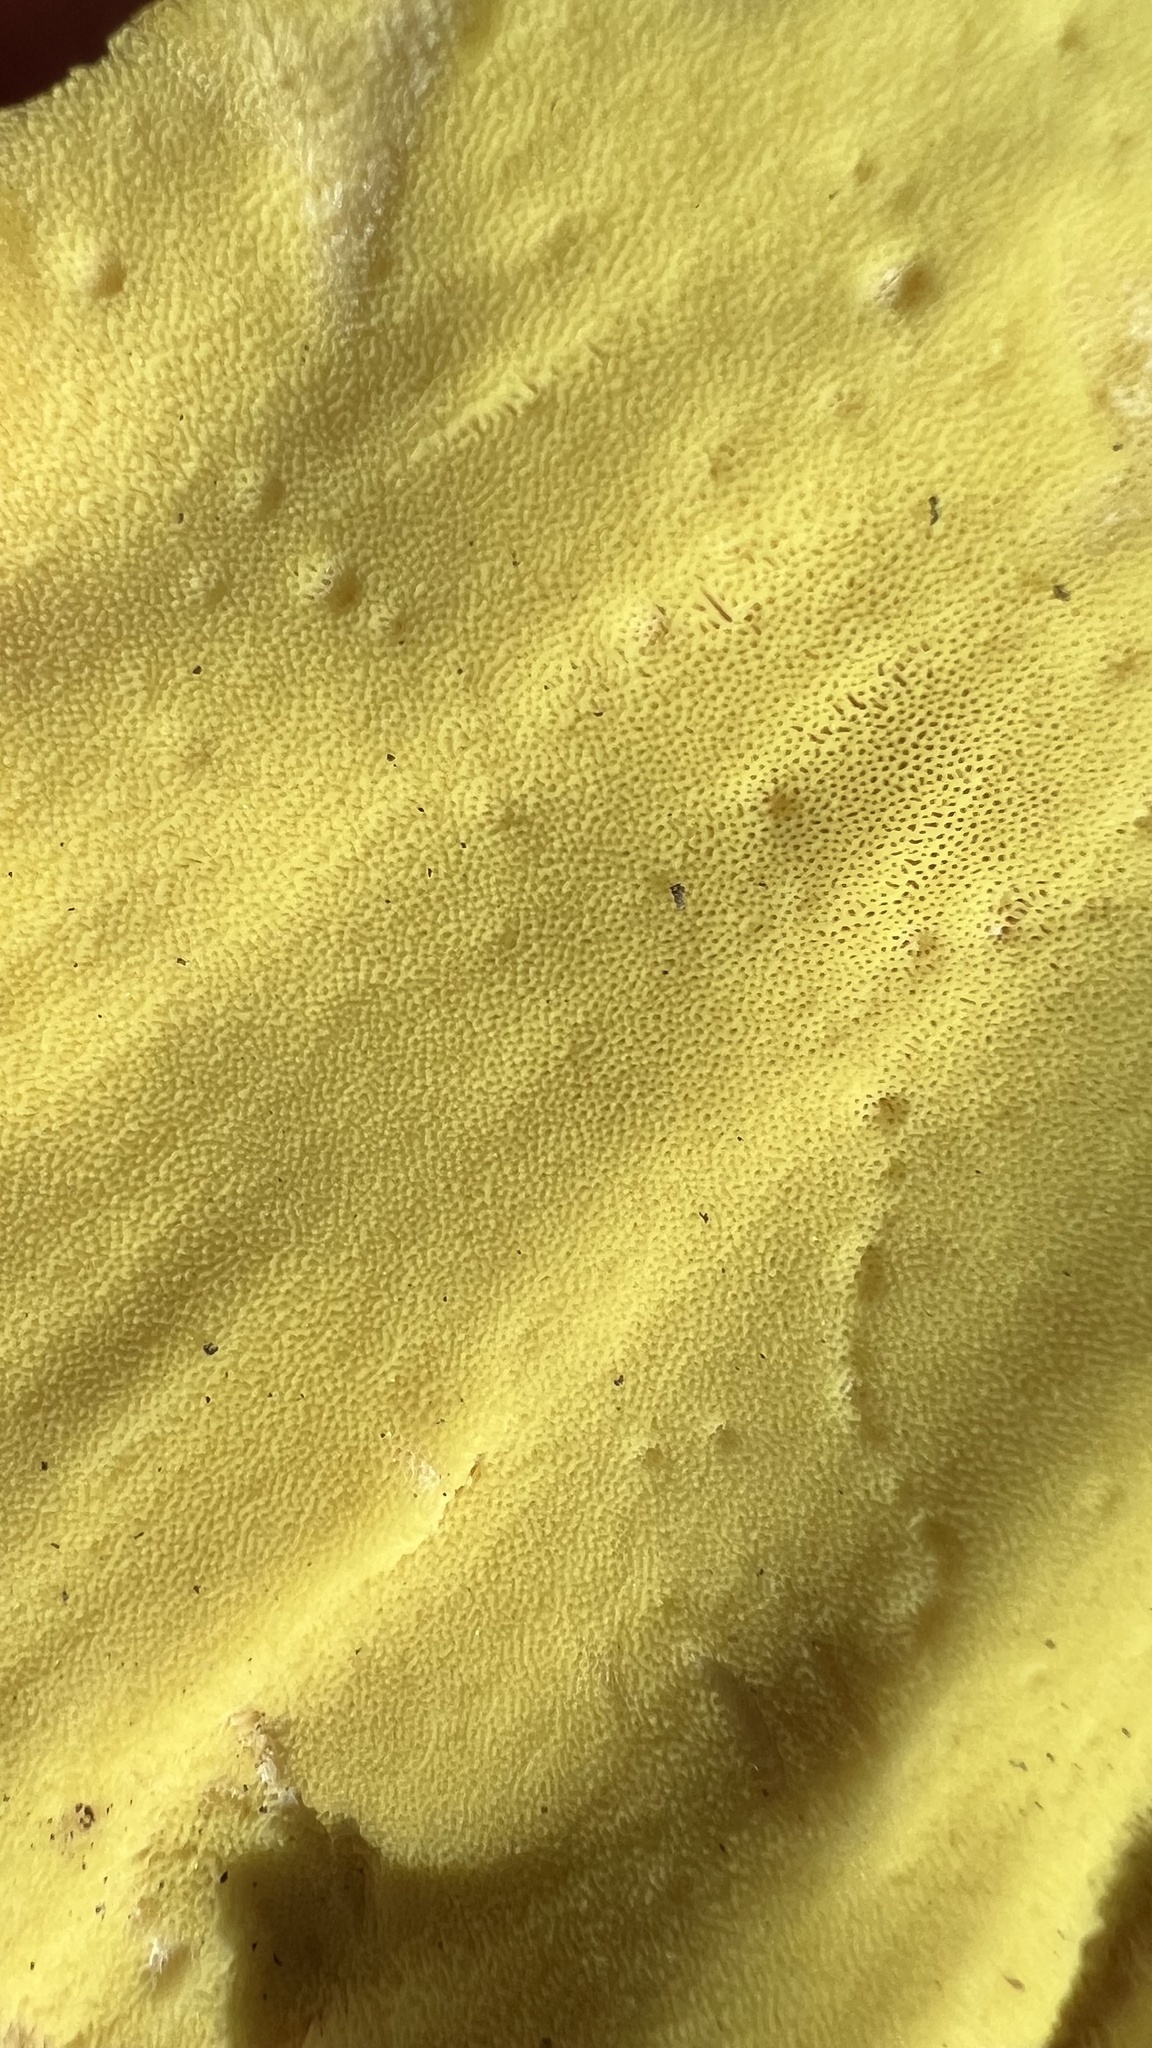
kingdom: Fungi
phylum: Basidiomycota
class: Agaricomycetes
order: Polyporales
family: Laetiporaceae
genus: Laetiporus
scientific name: Laetiporus sulphureus
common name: Chicken of the woods
